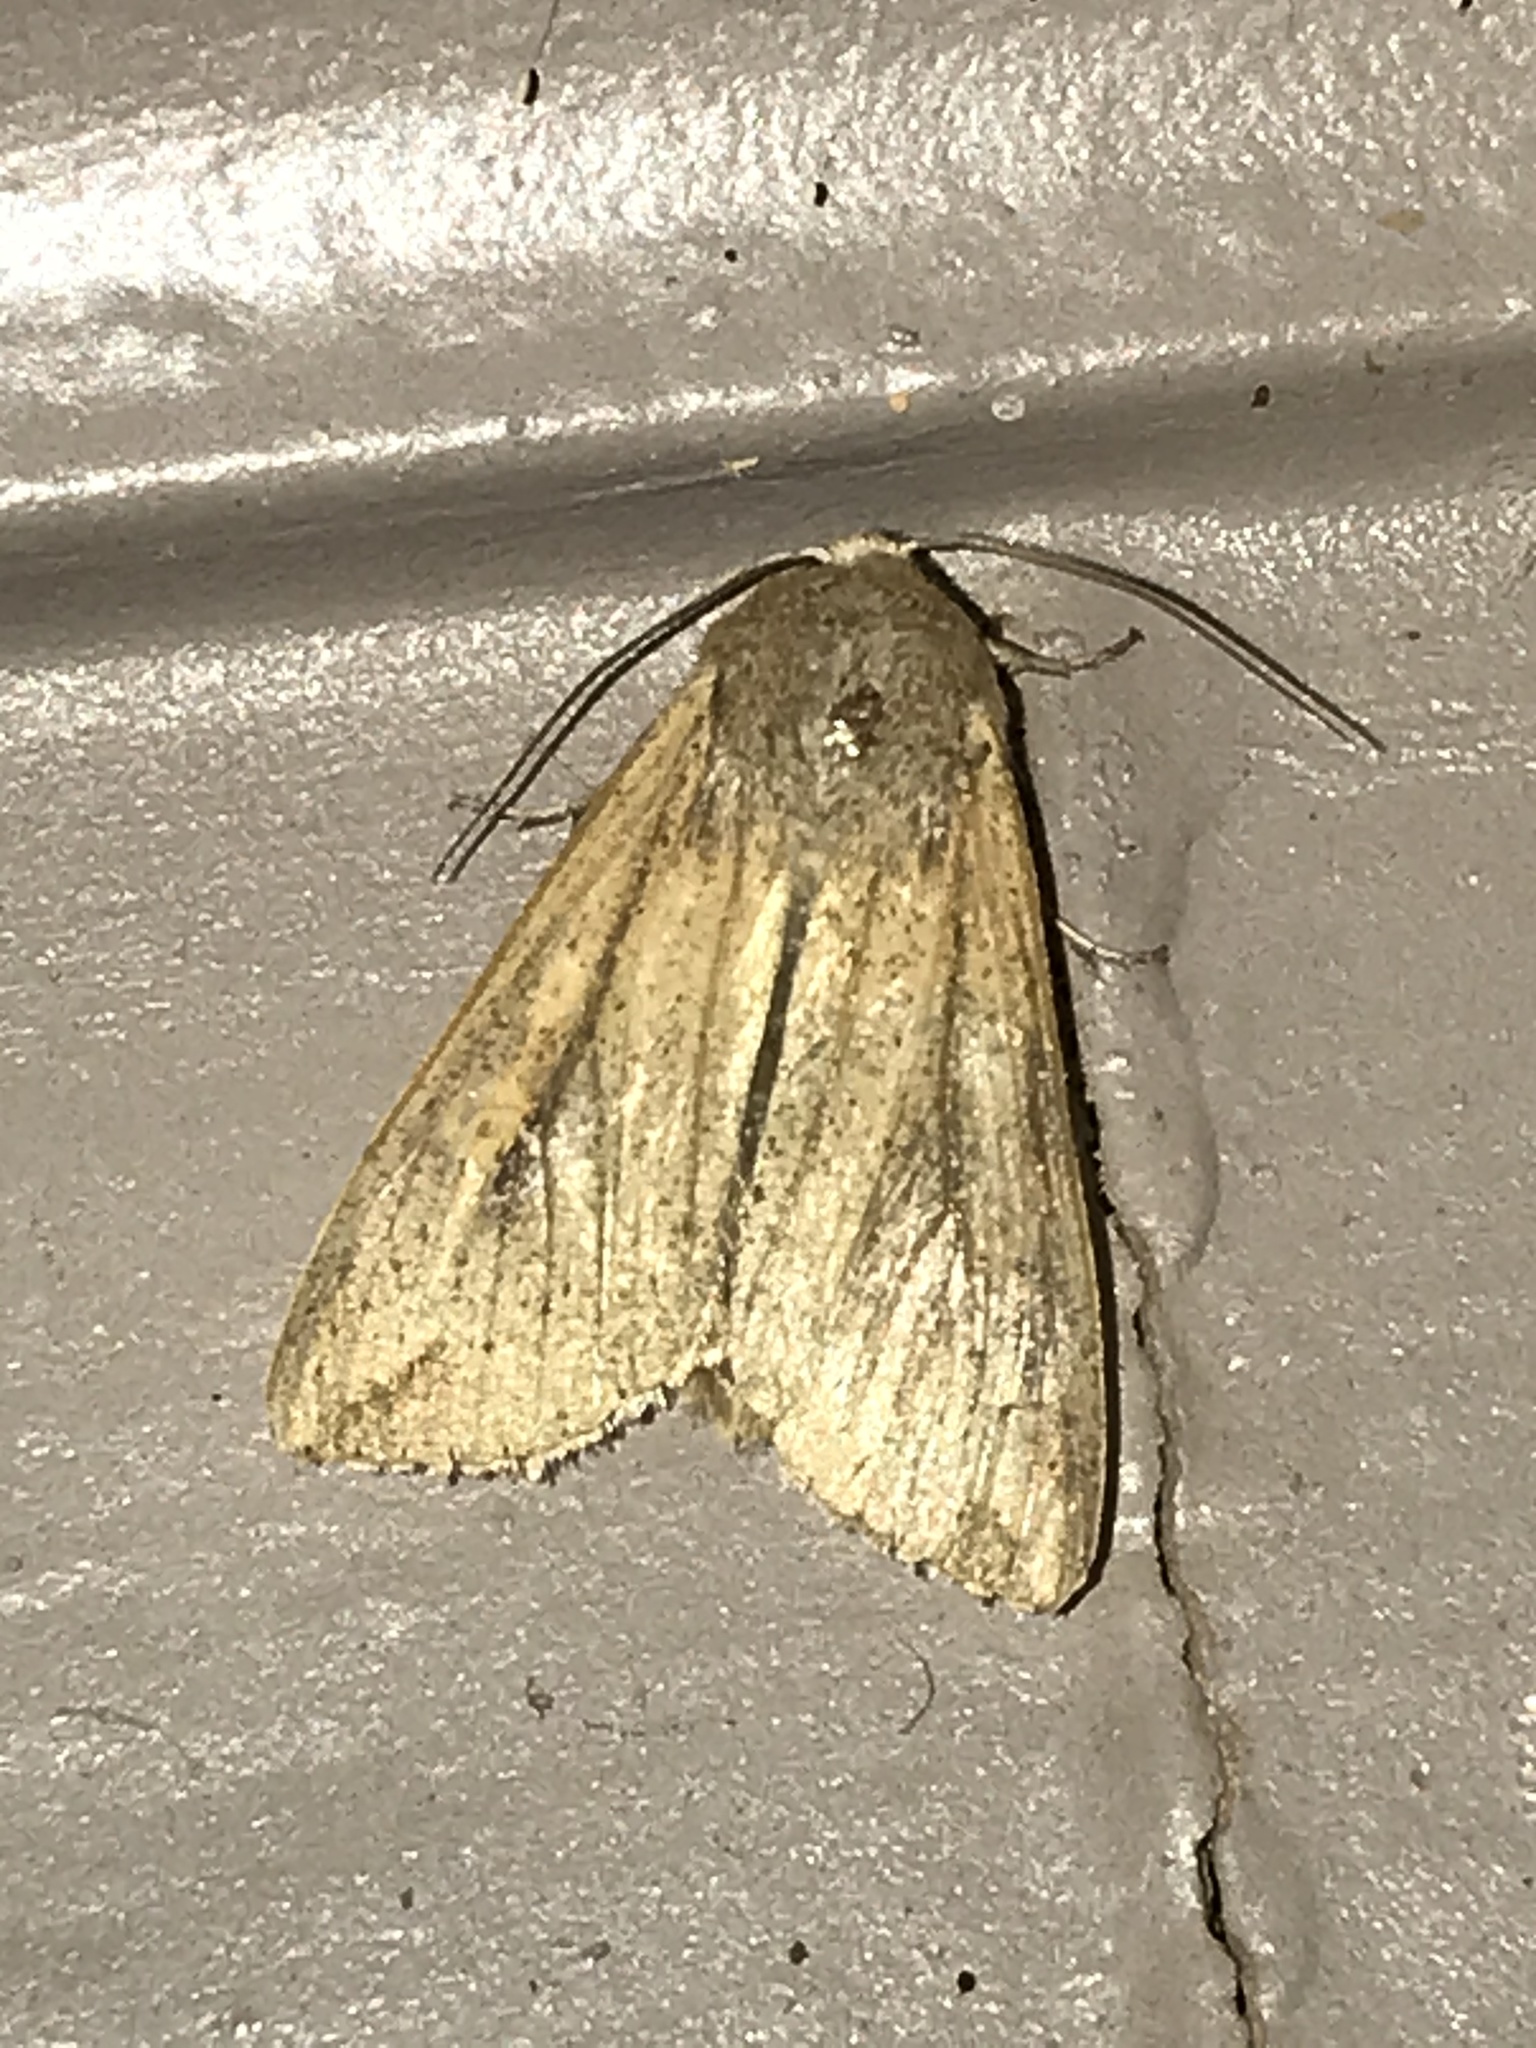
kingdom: Animalia
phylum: Arthropoda
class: Insecta
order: Lepidoptera
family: Noctuidae
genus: Mythimna
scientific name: Mythimna unipuncta
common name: White-speck
